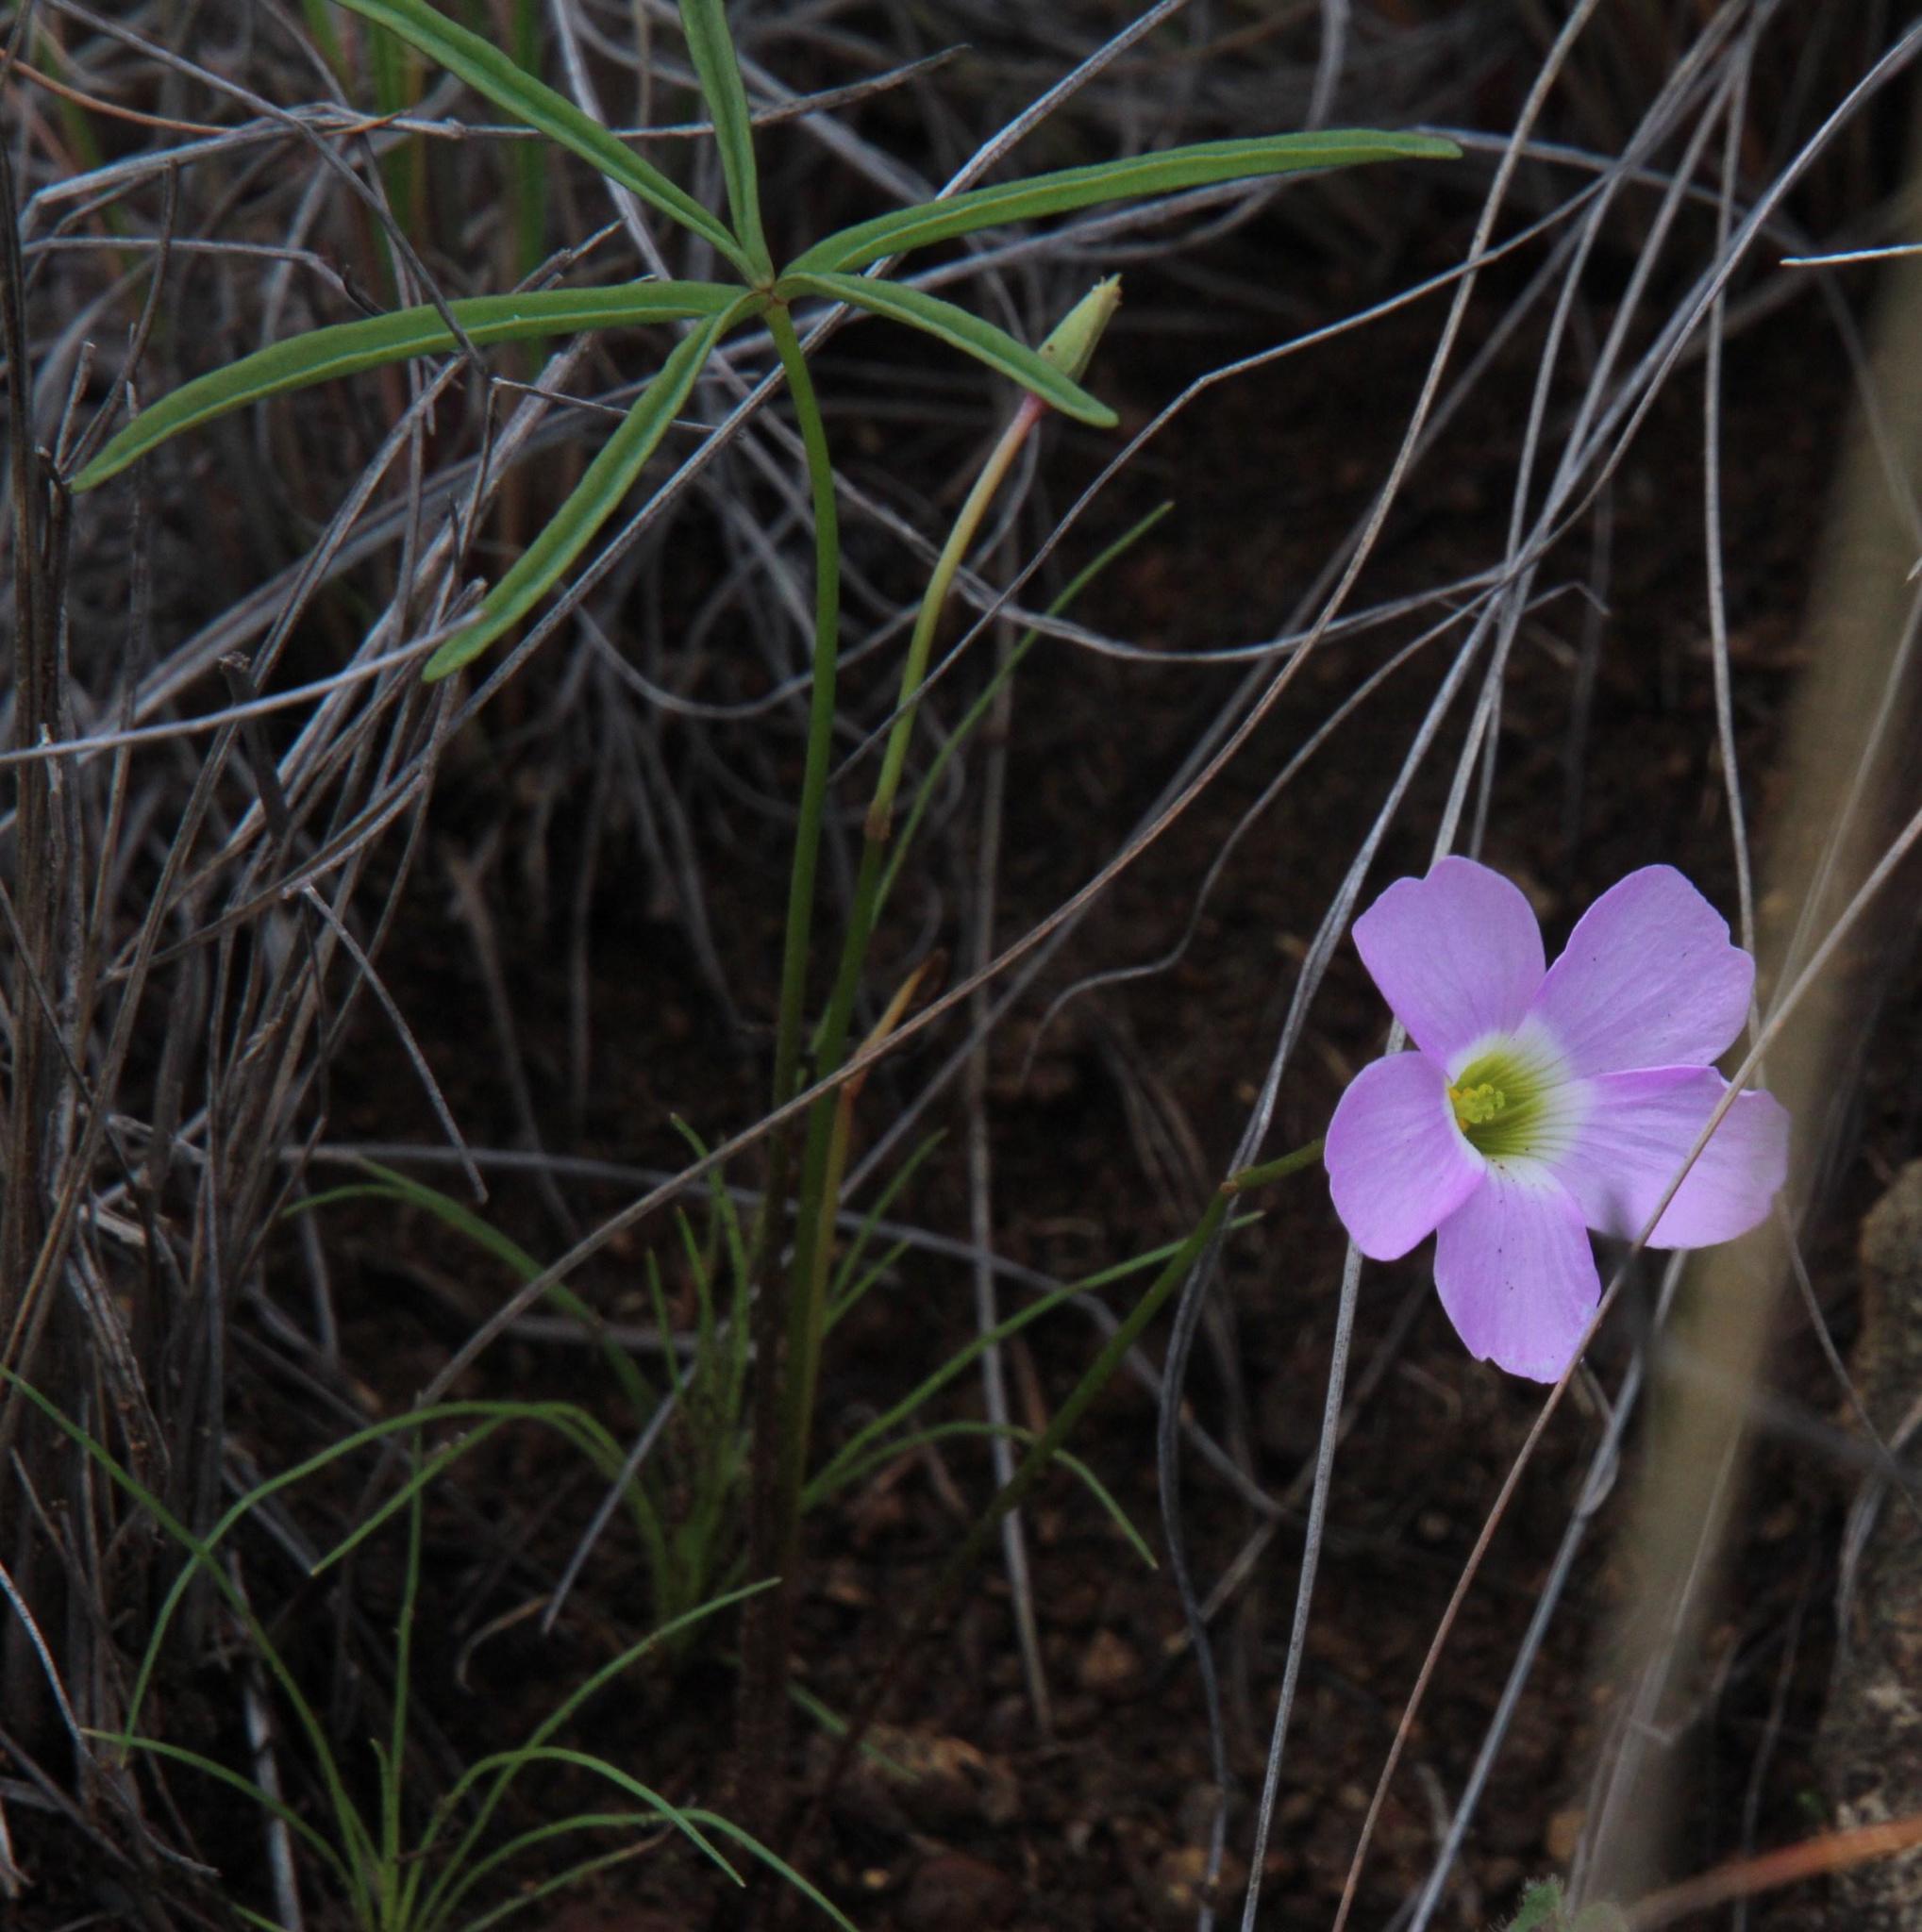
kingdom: Plantae
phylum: Tracheophyta
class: Magnoliopsida
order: Oxalidales
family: Oxalidaceae
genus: Oxalis
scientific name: Oxalis smithiana
